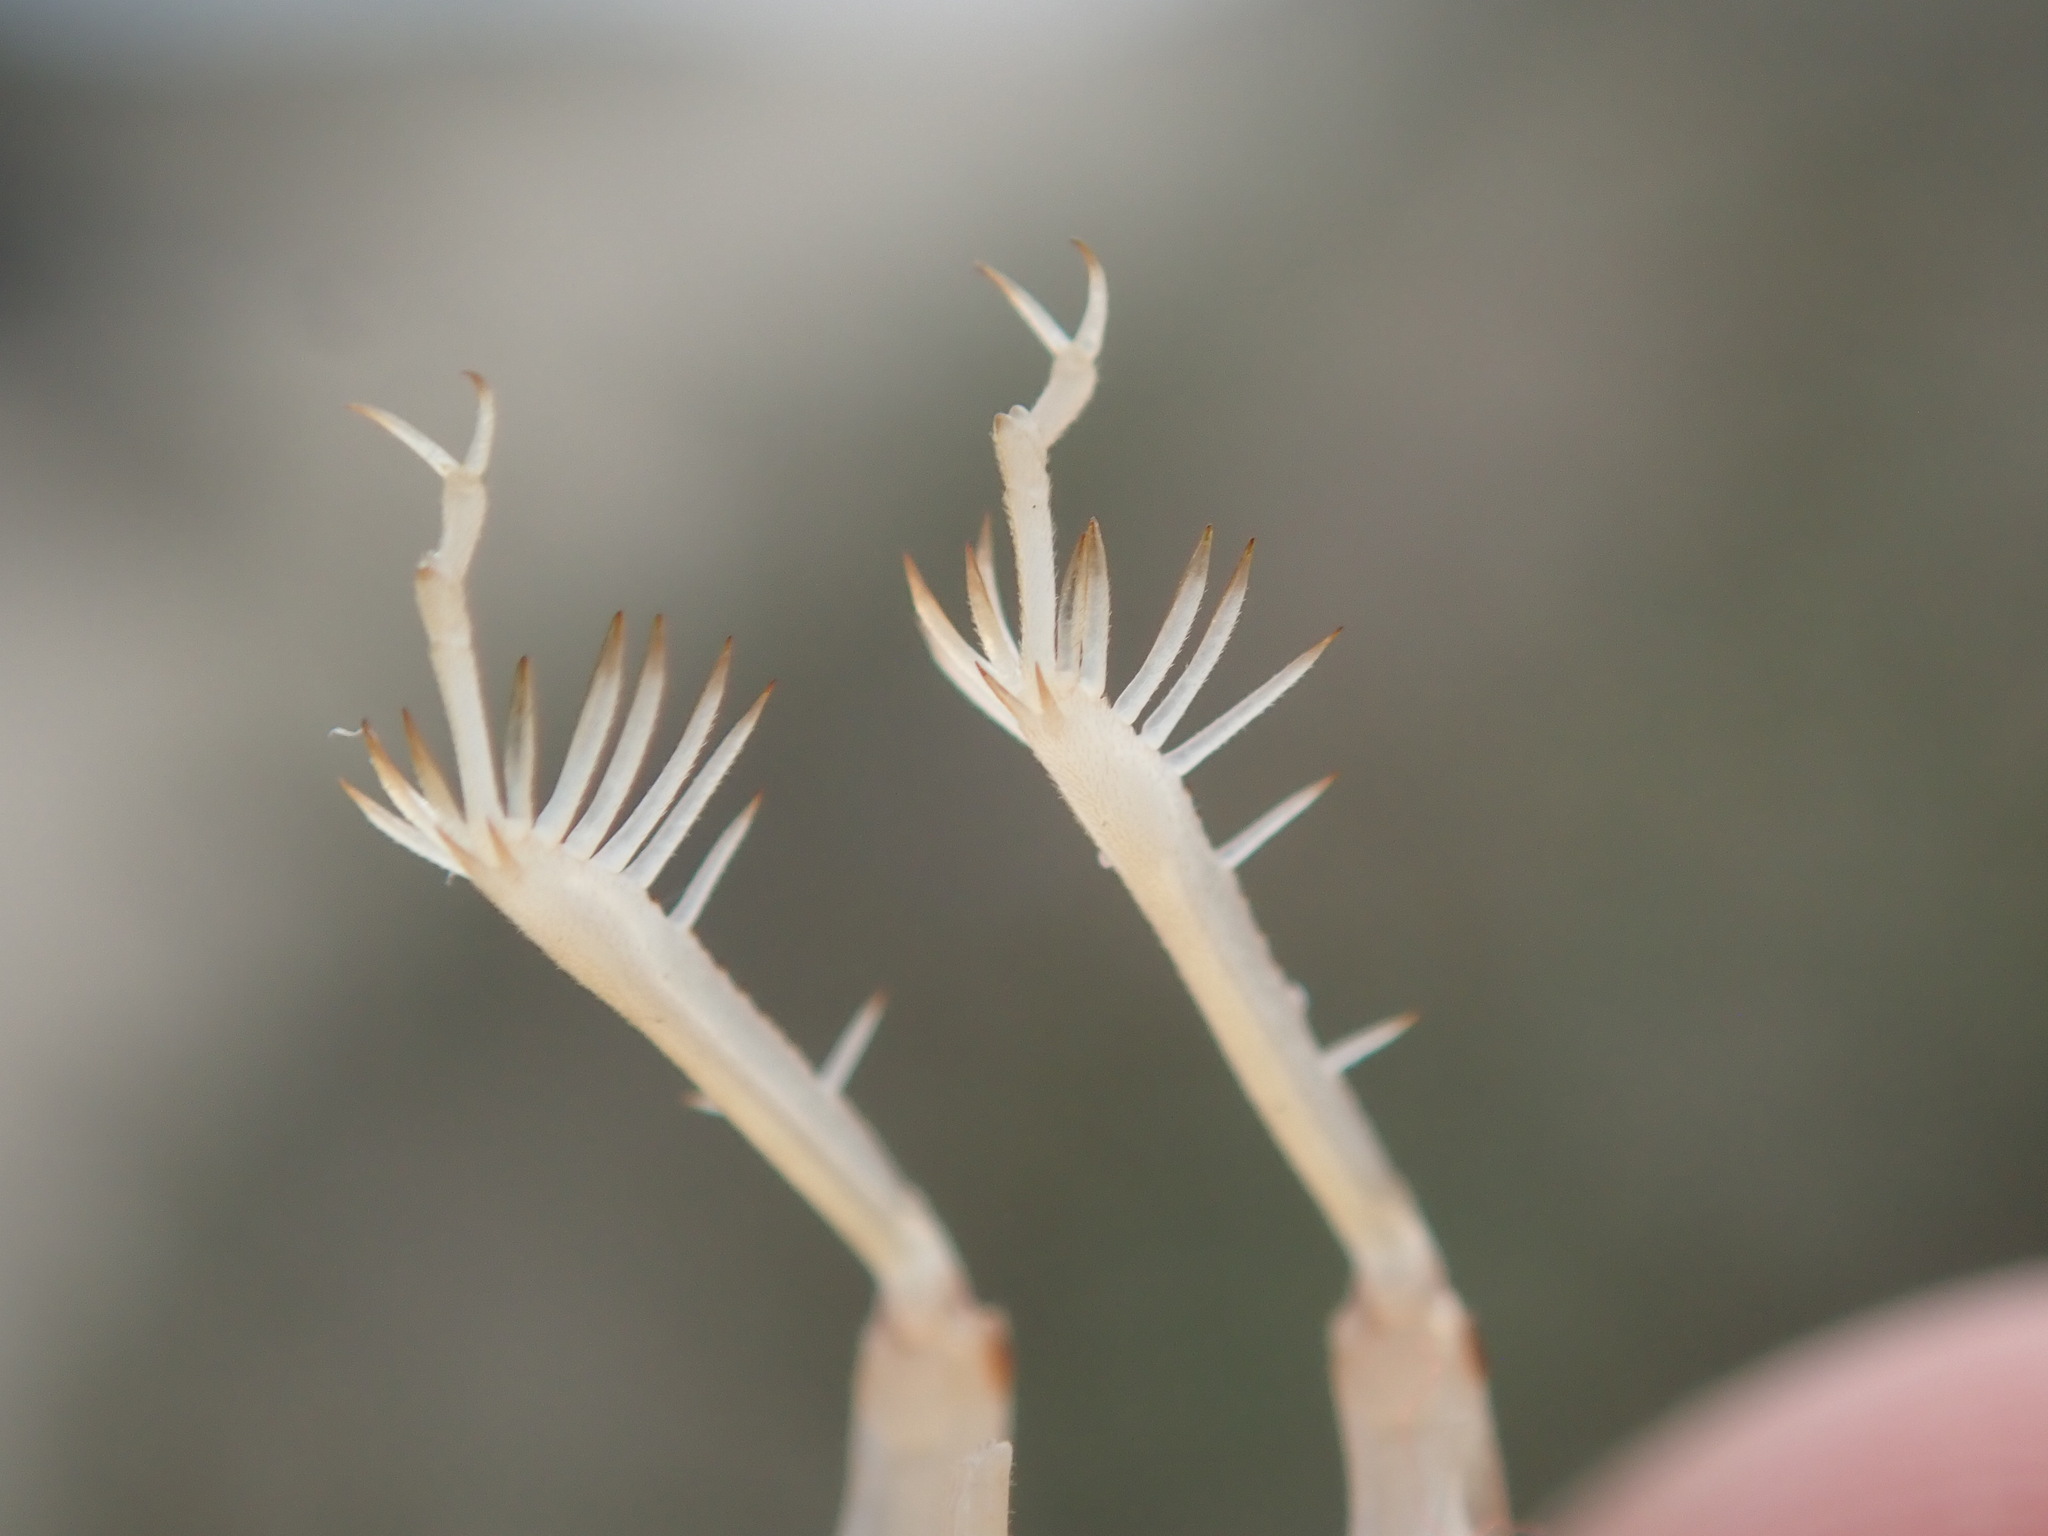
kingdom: Animalia
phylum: Arthropoda
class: Insecta
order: Orthoptera
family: Rhaphidophoridae
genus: Rhachocnemis
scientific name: Rhachocnemis validus
